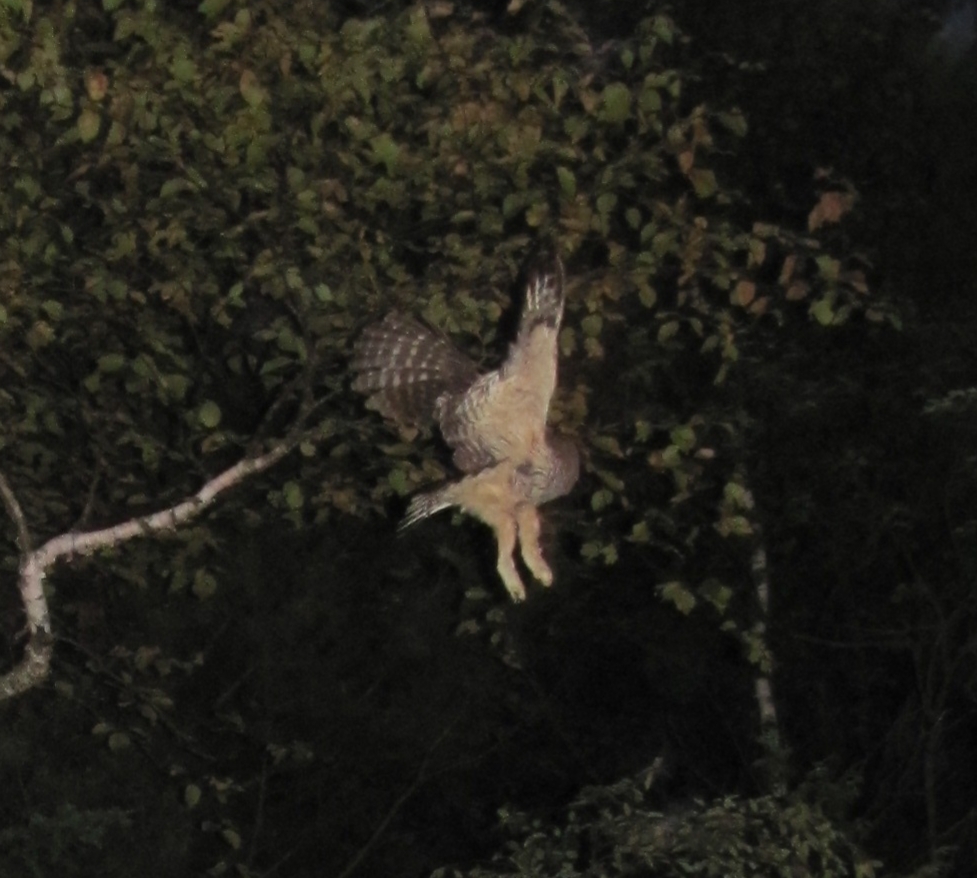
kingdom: Animalia
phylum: Chordata
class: Aves
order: Strigiformes
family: Strigidae
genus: Strix
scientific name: Strix varia
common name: Barred owl
